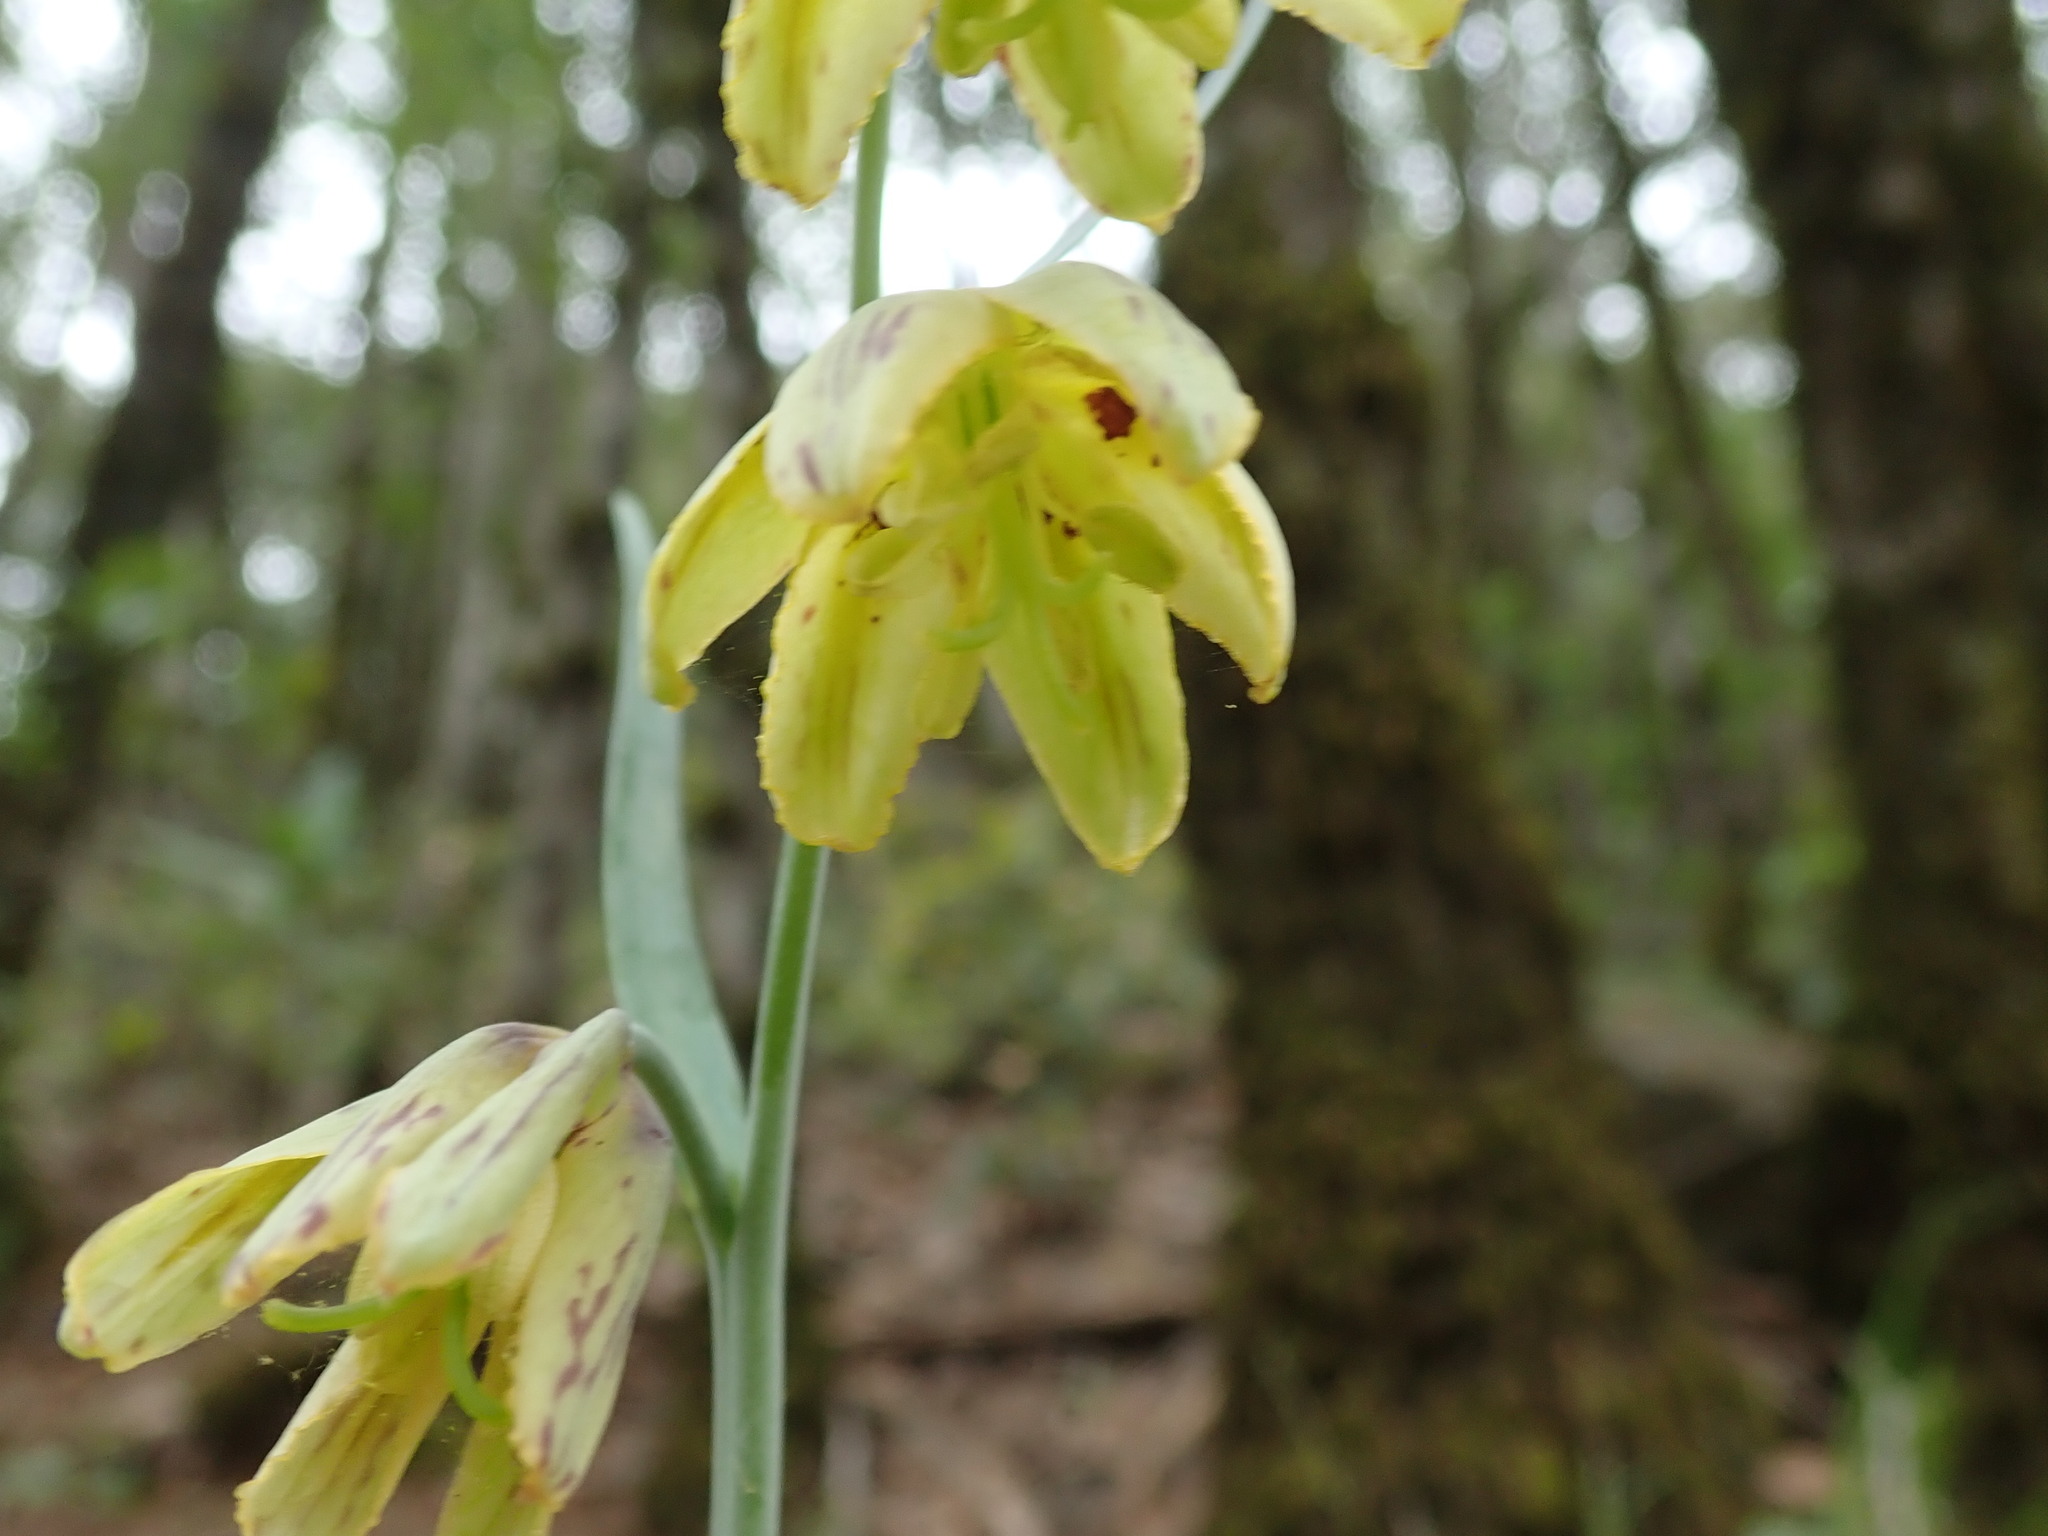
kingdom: Plantae
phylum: Tracheophyta
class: Liliopsida
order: Liliales
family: Liliaceae
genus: Fritillaria
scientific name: Fritillaria affinis
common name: Ojai fritillary
